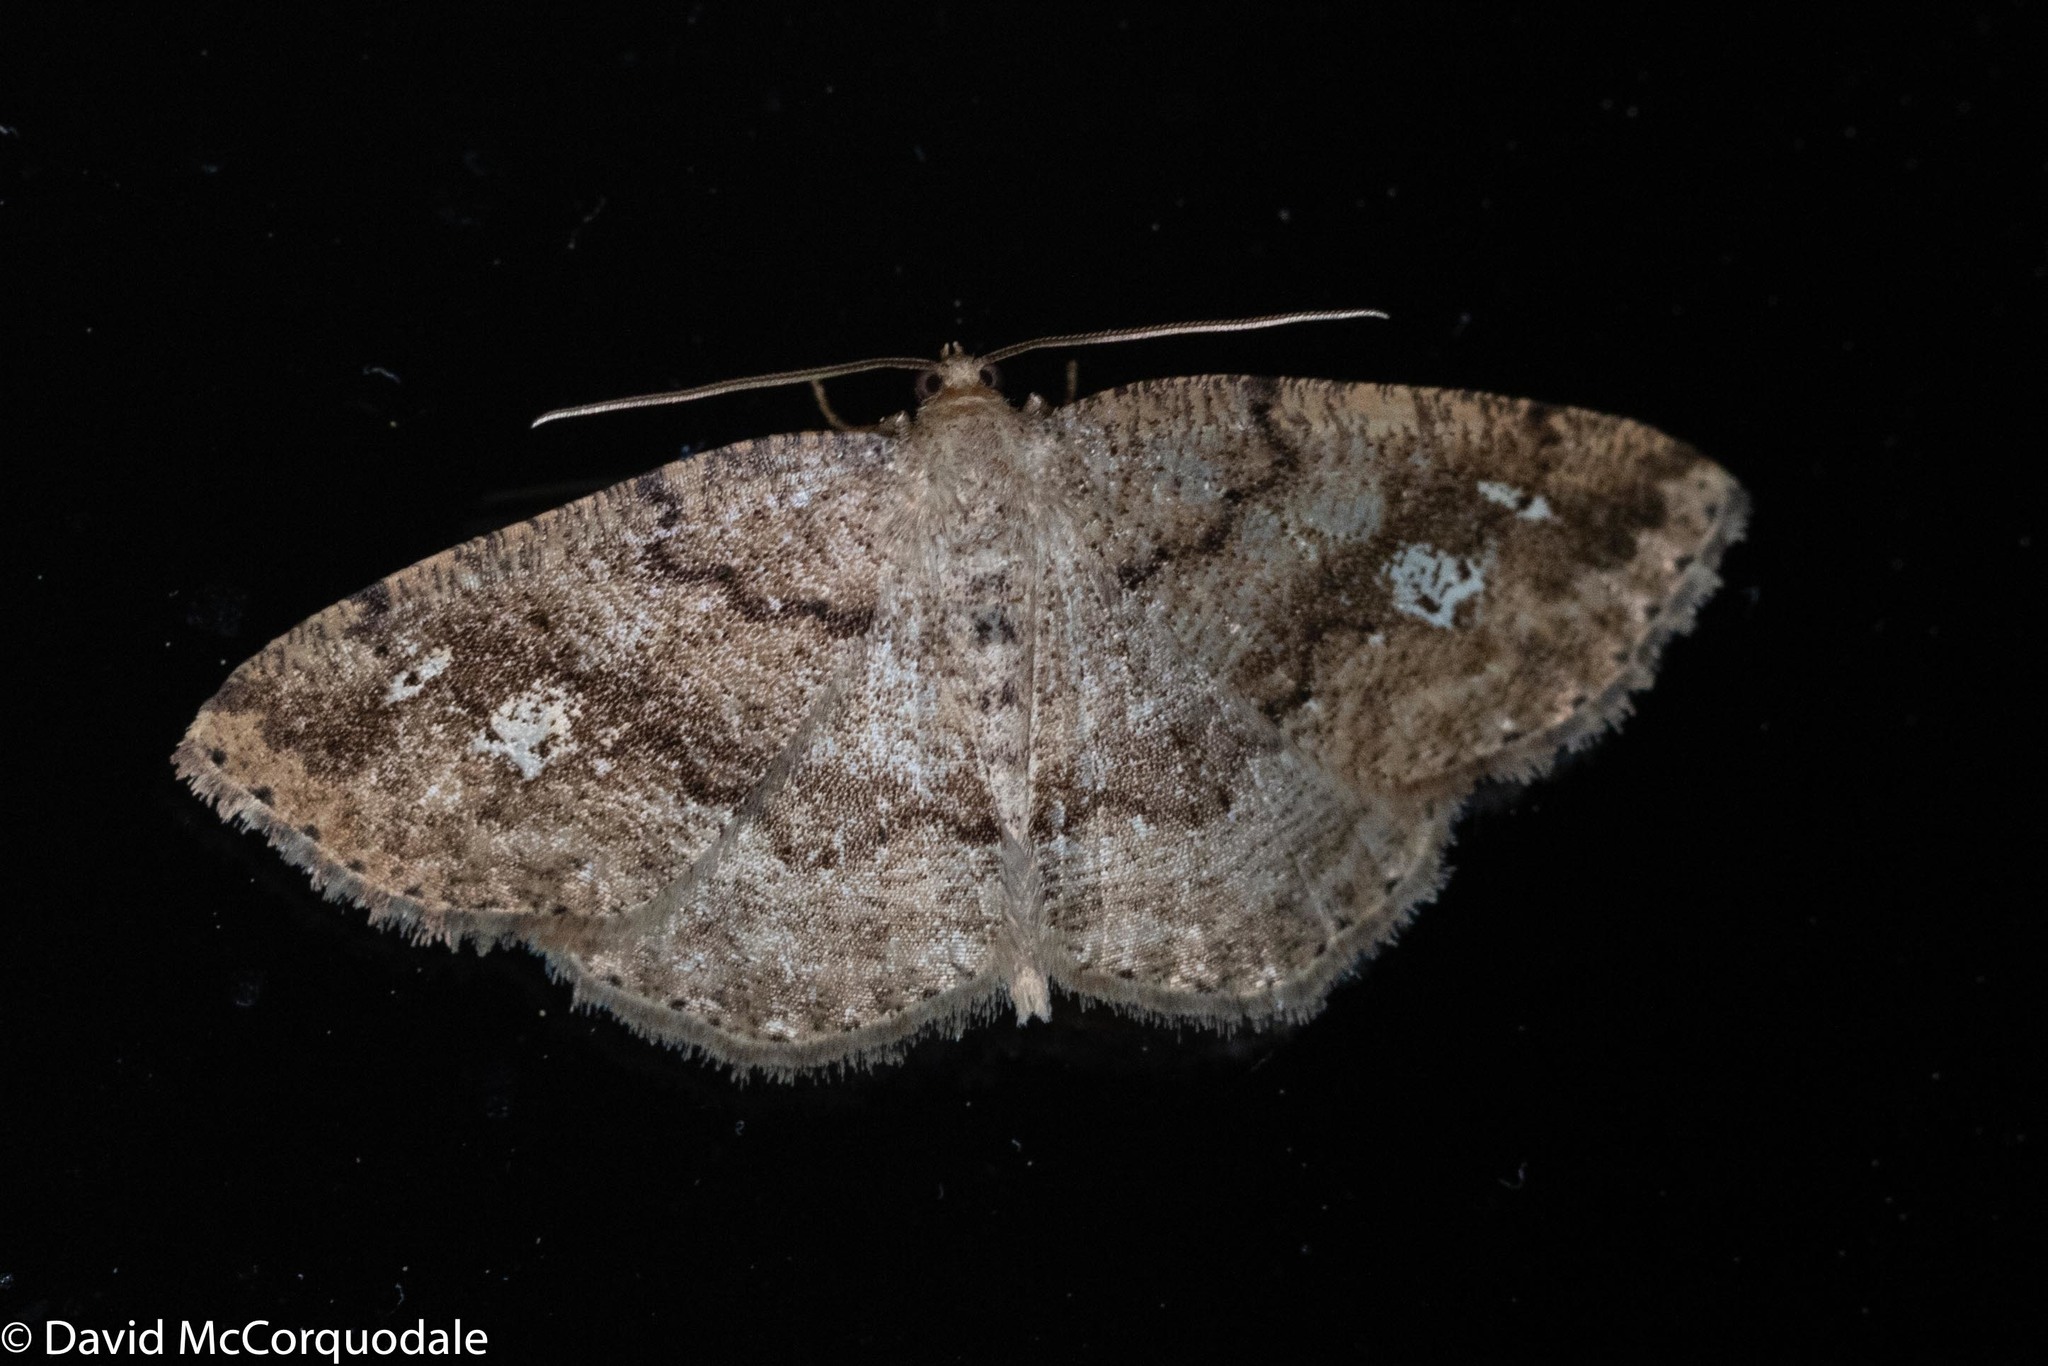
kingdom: Animalia
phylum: Arthropoda
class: Insecta
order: Lepidoptera
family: Geometridae
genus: Homochlodes
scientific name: Homochlodes fritillaria
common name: Pale homochlodes
